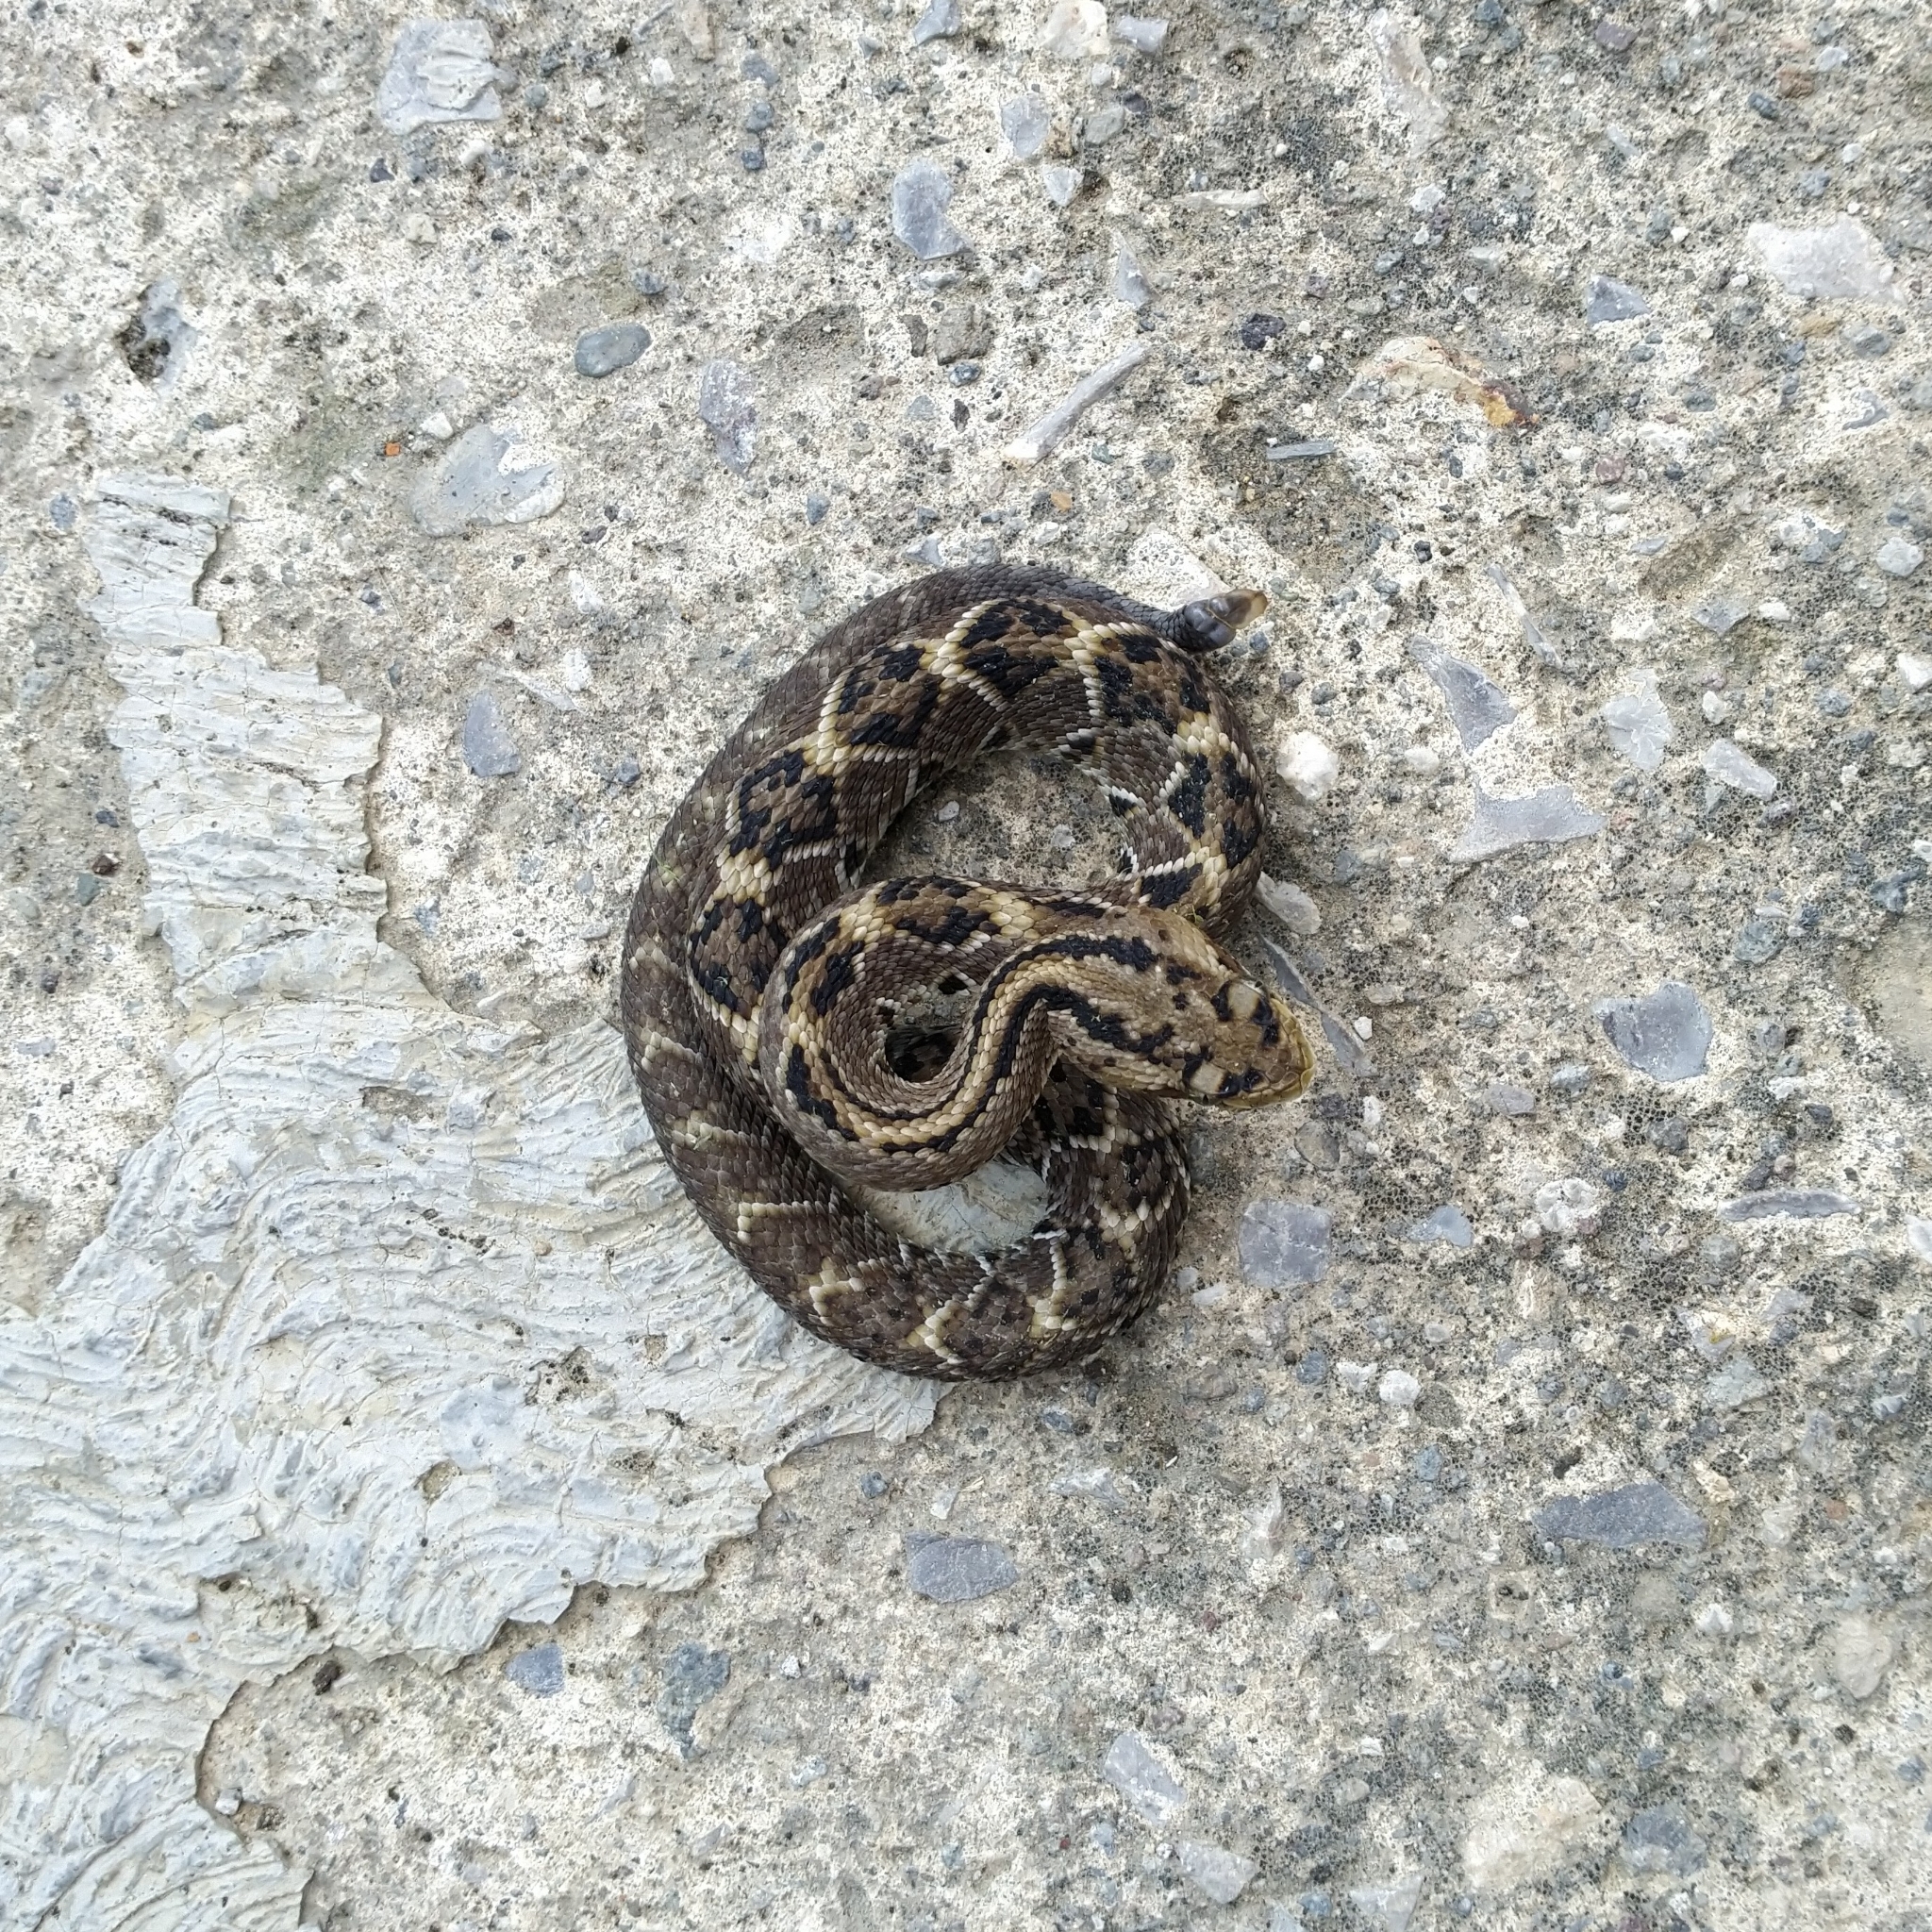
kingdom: Animalia
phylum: Chordata
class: Squamata
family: Viperidae
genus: Crotalus
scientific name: Crotalus culminatus
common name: Northwestern neotropical rattlesnake
